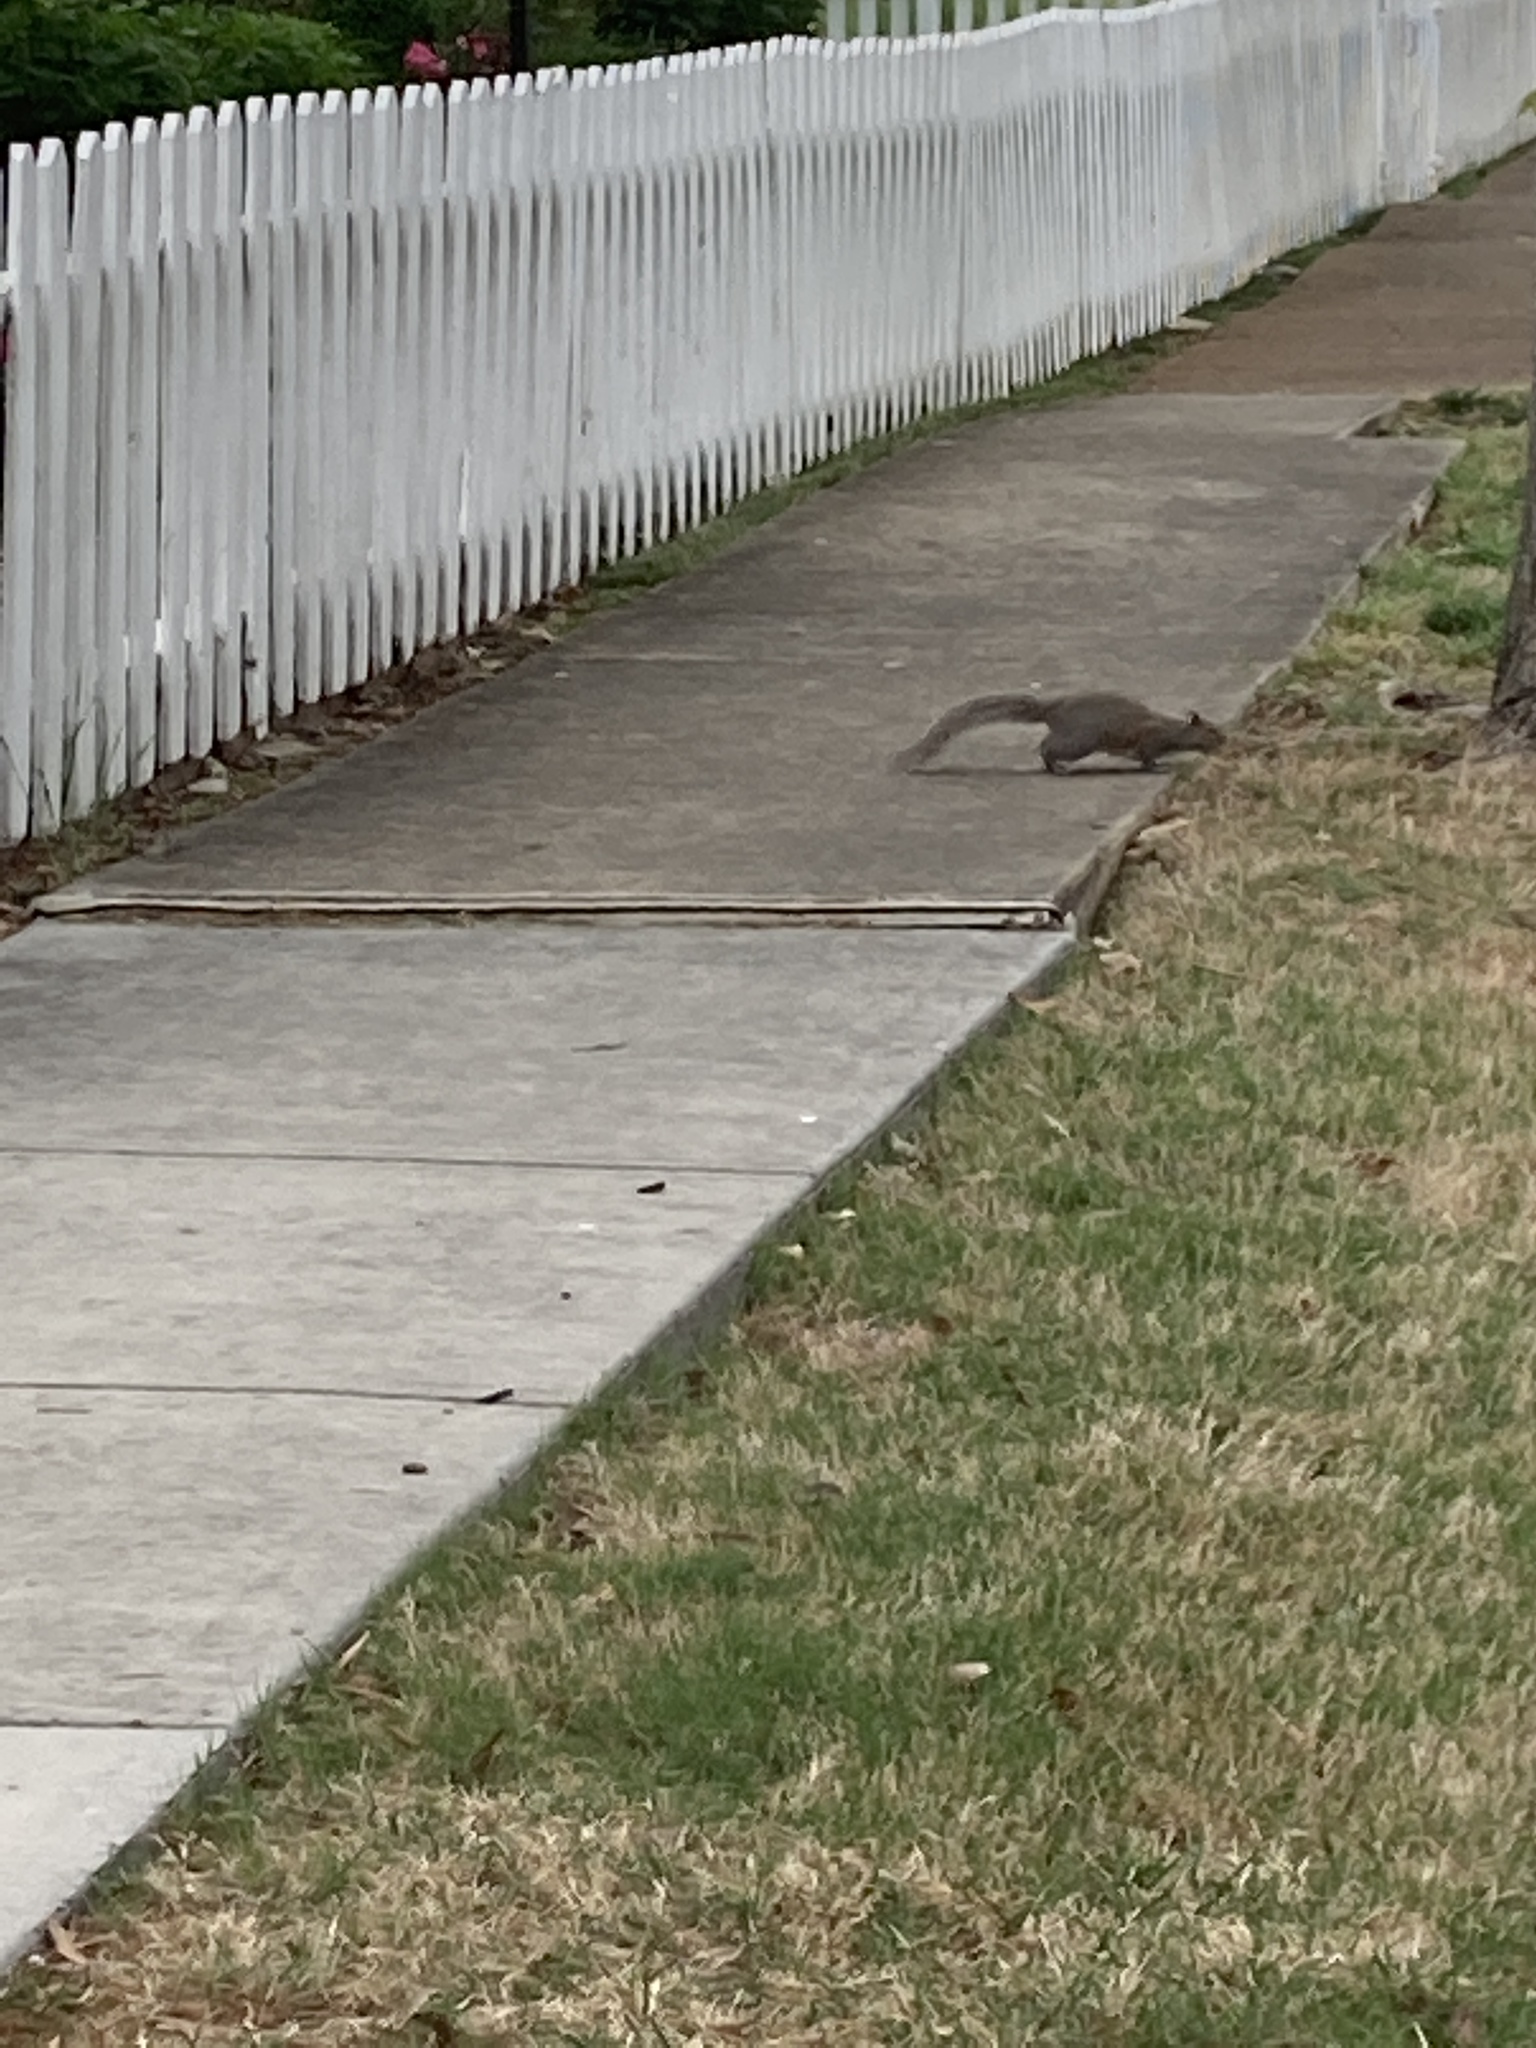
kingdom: Animalia
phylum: Chordata
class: Mammalia
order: Rodentia
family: Sciuridae
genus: Sciurus
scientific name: Sciurus carolinensis
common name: Eastern gray squirrel
